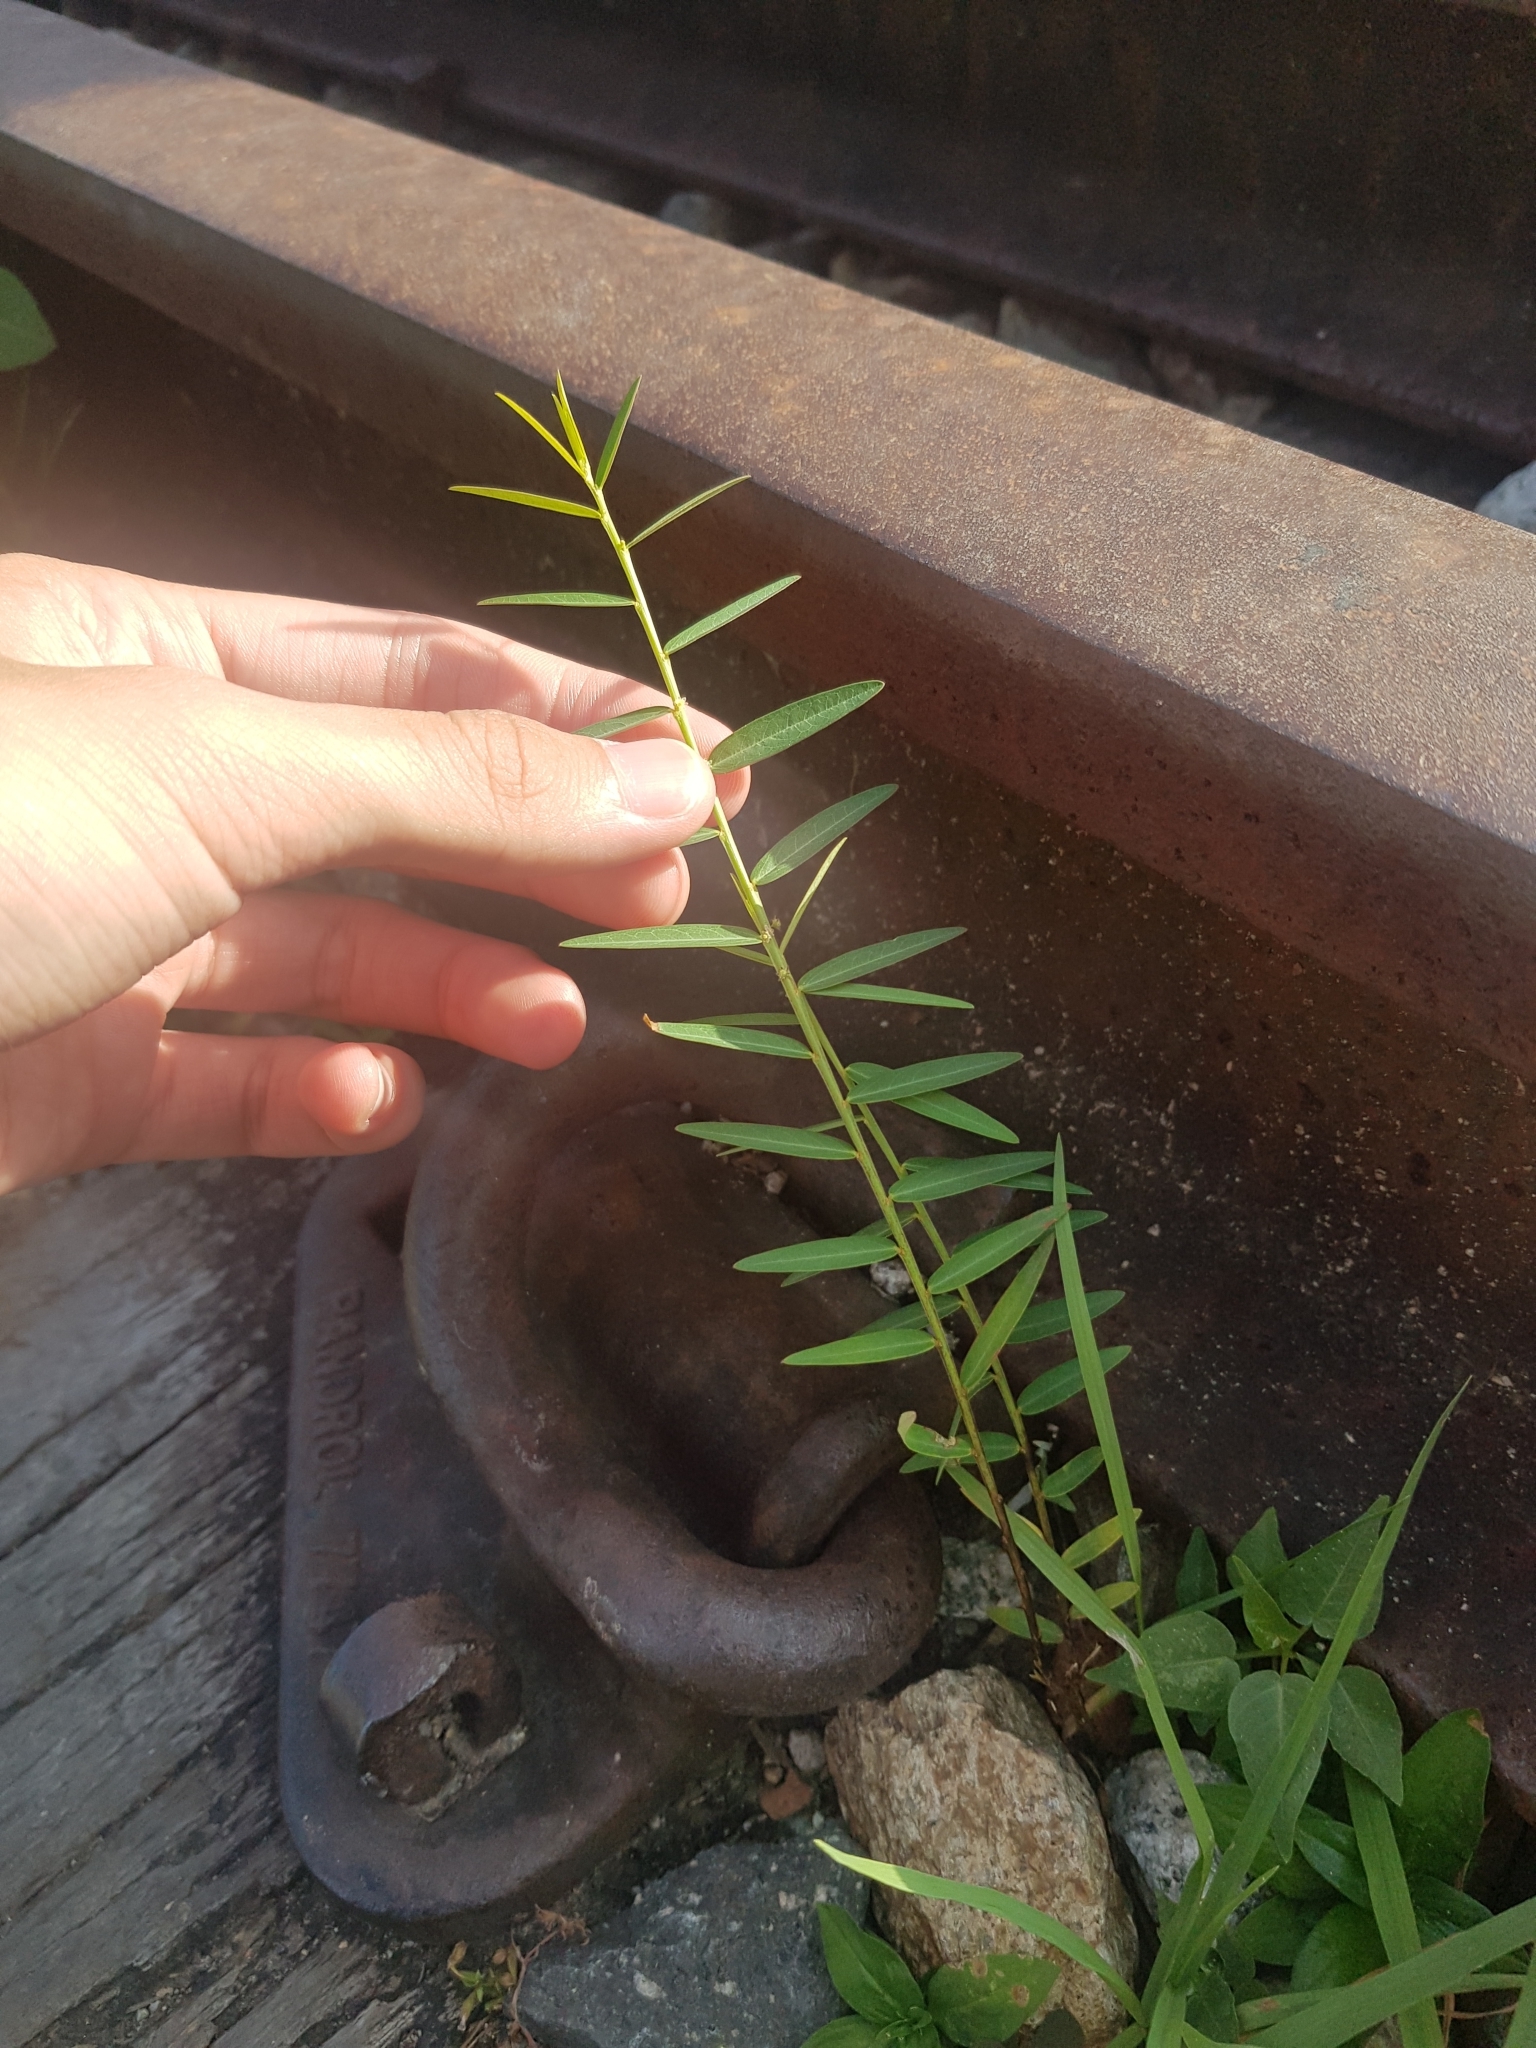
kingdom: Plantae
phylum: Tracheophyta
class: Magnoliopsida
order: Malpighiales
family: Phyllanthaceae
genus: Phyllanthus
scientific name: Phyllanthus virgatus
